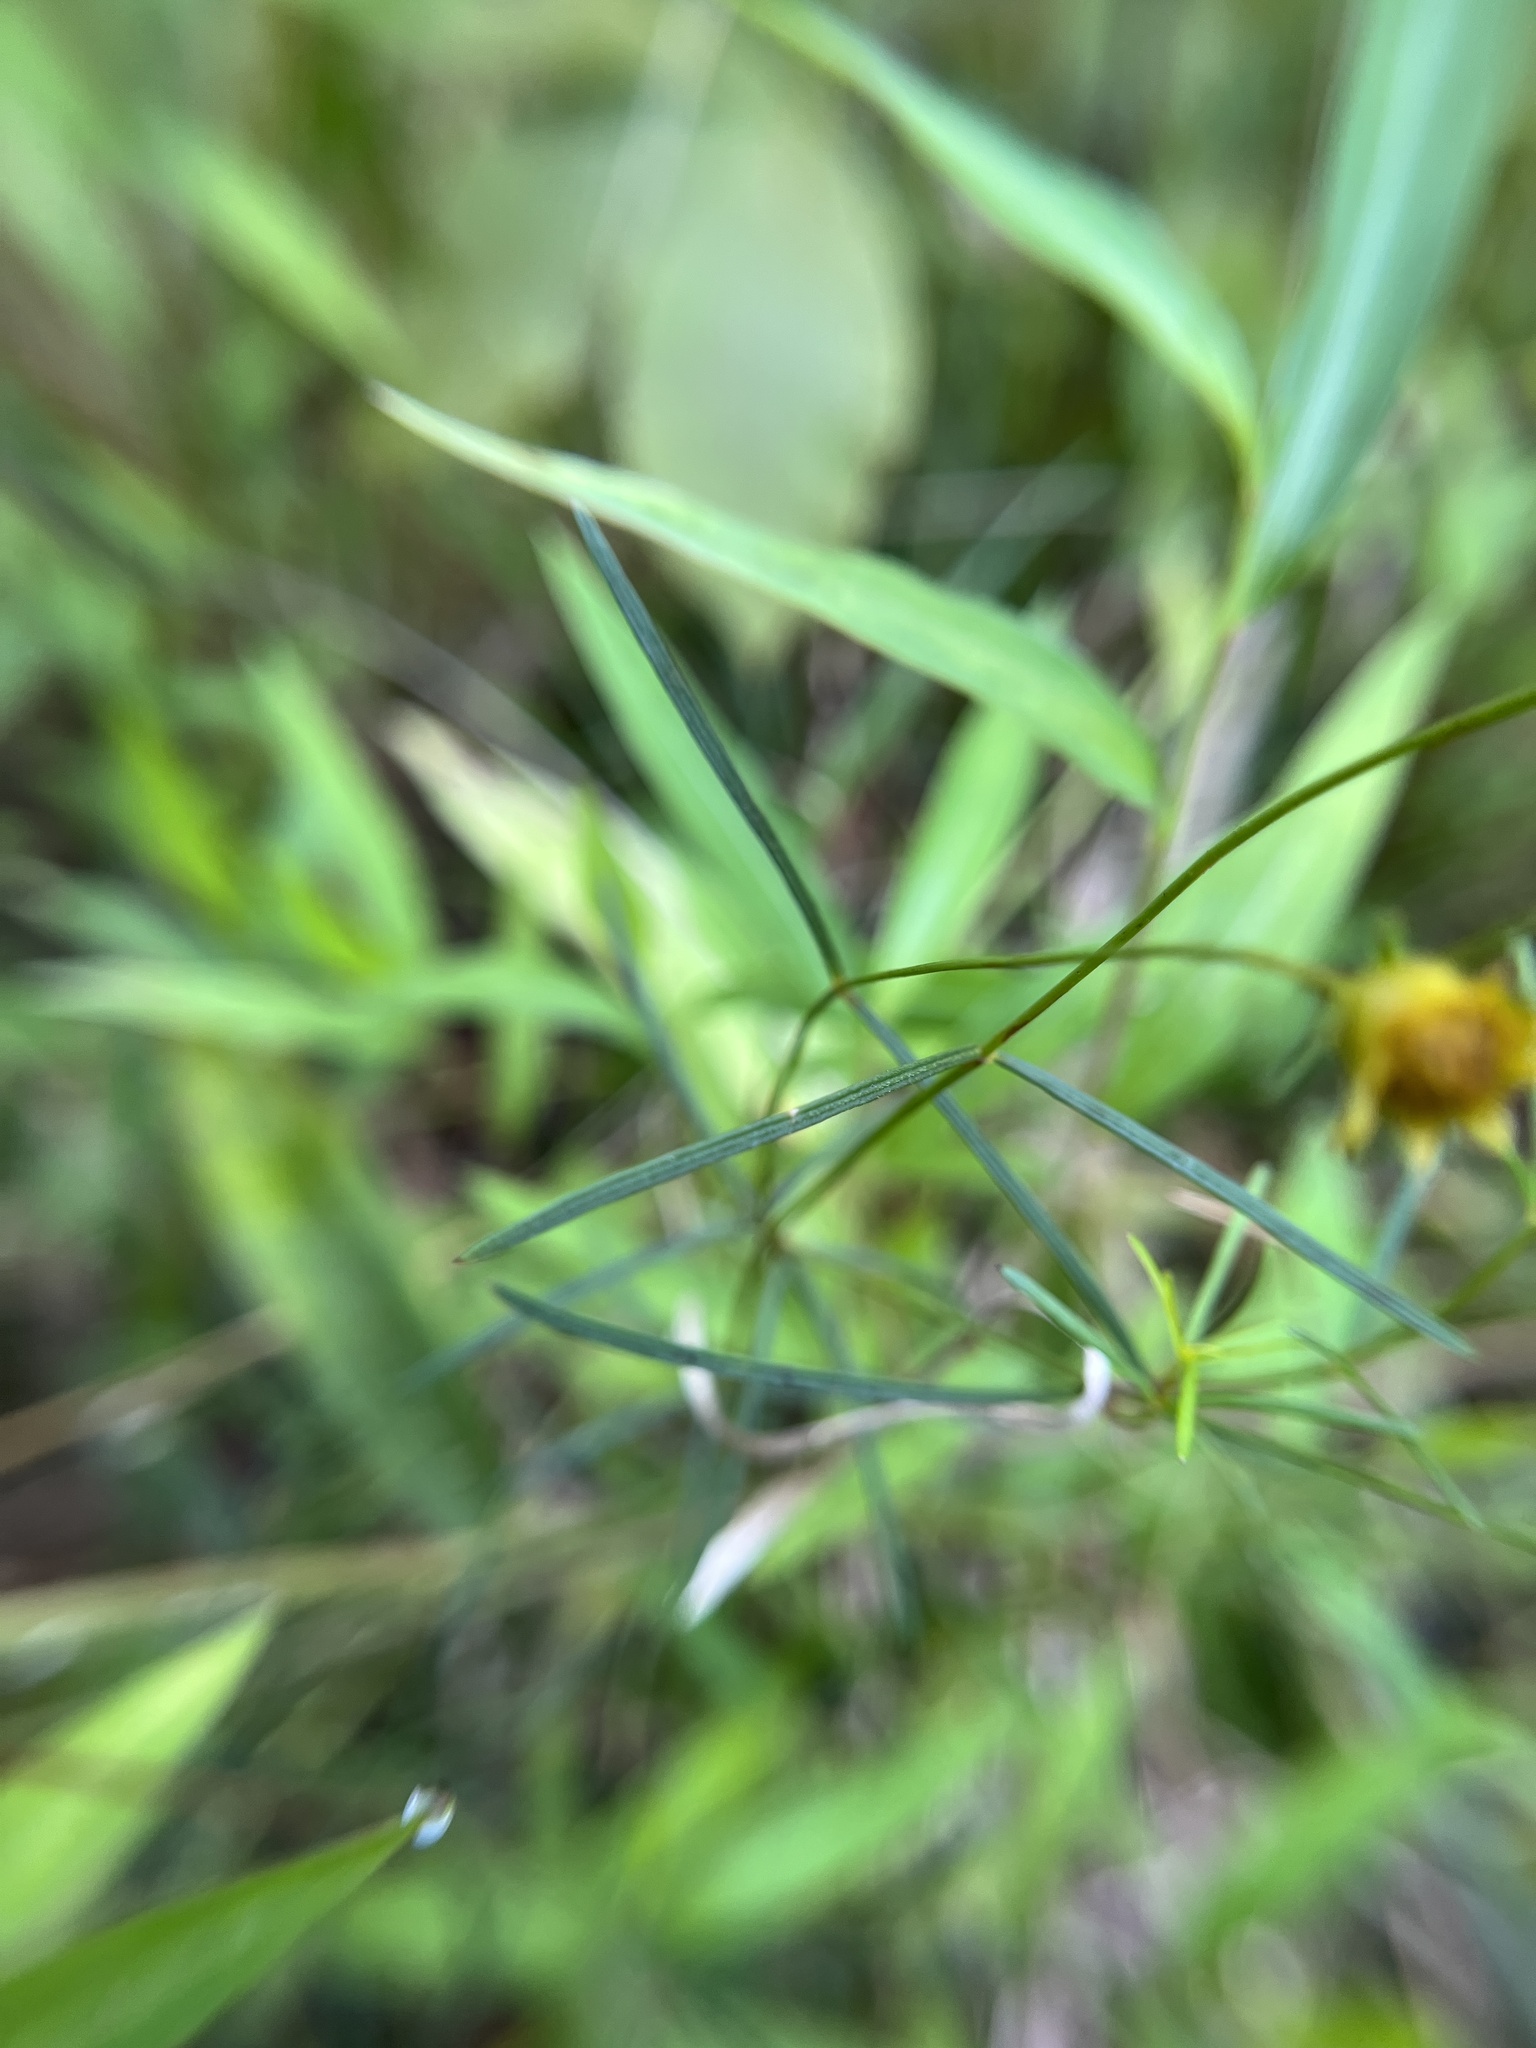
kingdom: Plantae
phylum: Tracheophyta
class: Magnoliopsida
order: Asterales
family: Asteraceae
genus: Coreopsis
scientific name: Coreopsis verticillata
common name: Whorled tickseed
